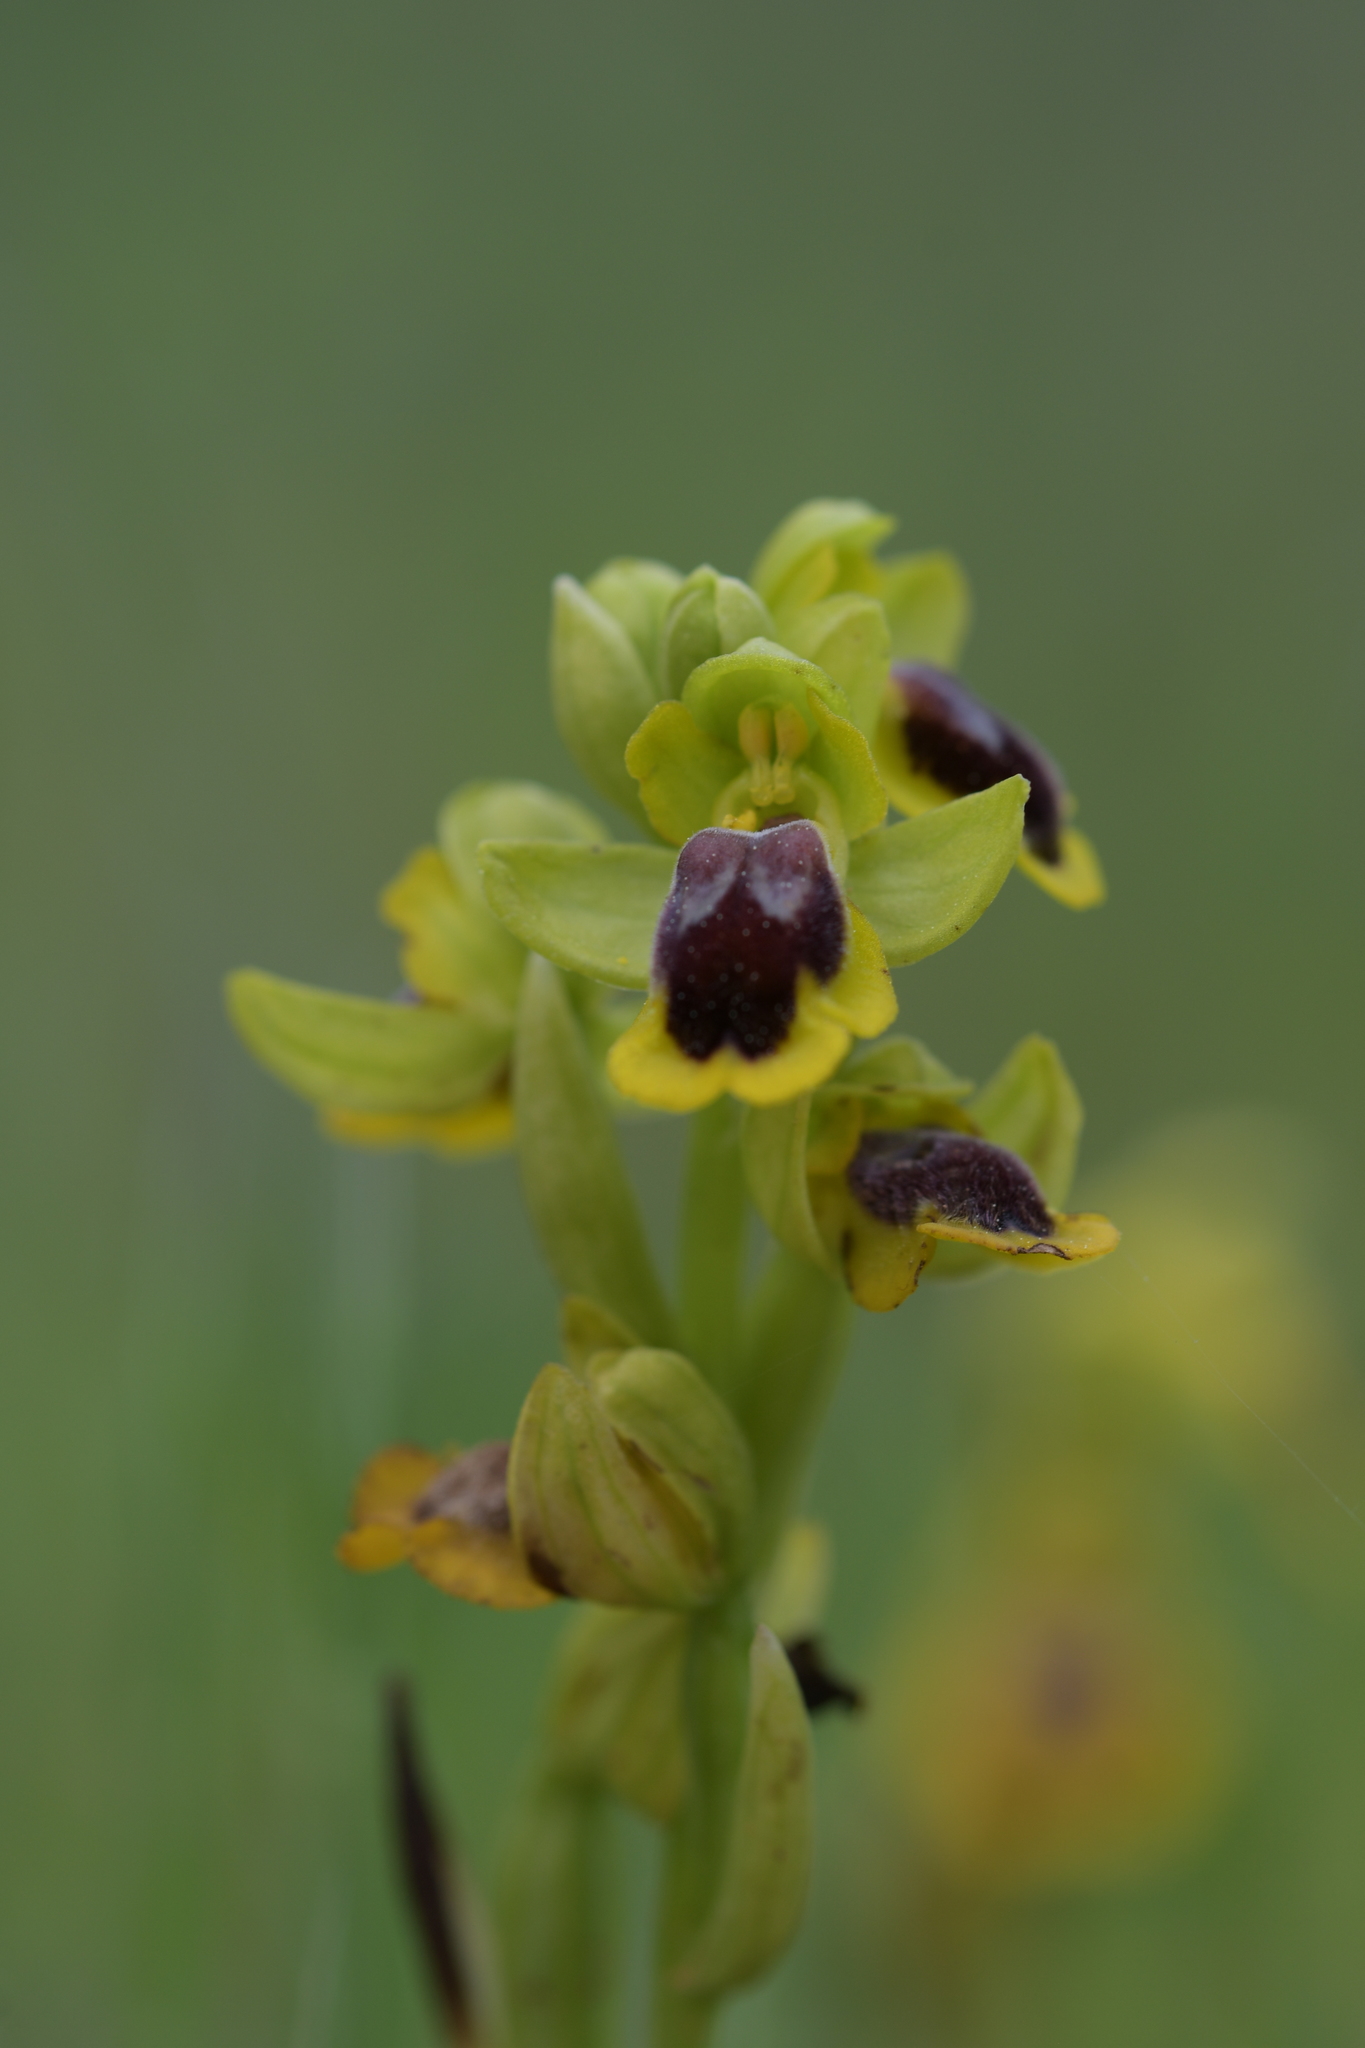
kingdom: Plantae
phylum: Tracheophyta
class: Liliopsida
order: Asparagales
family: Orchidaceae
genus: Ophrys
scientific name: Ophrys lutea
